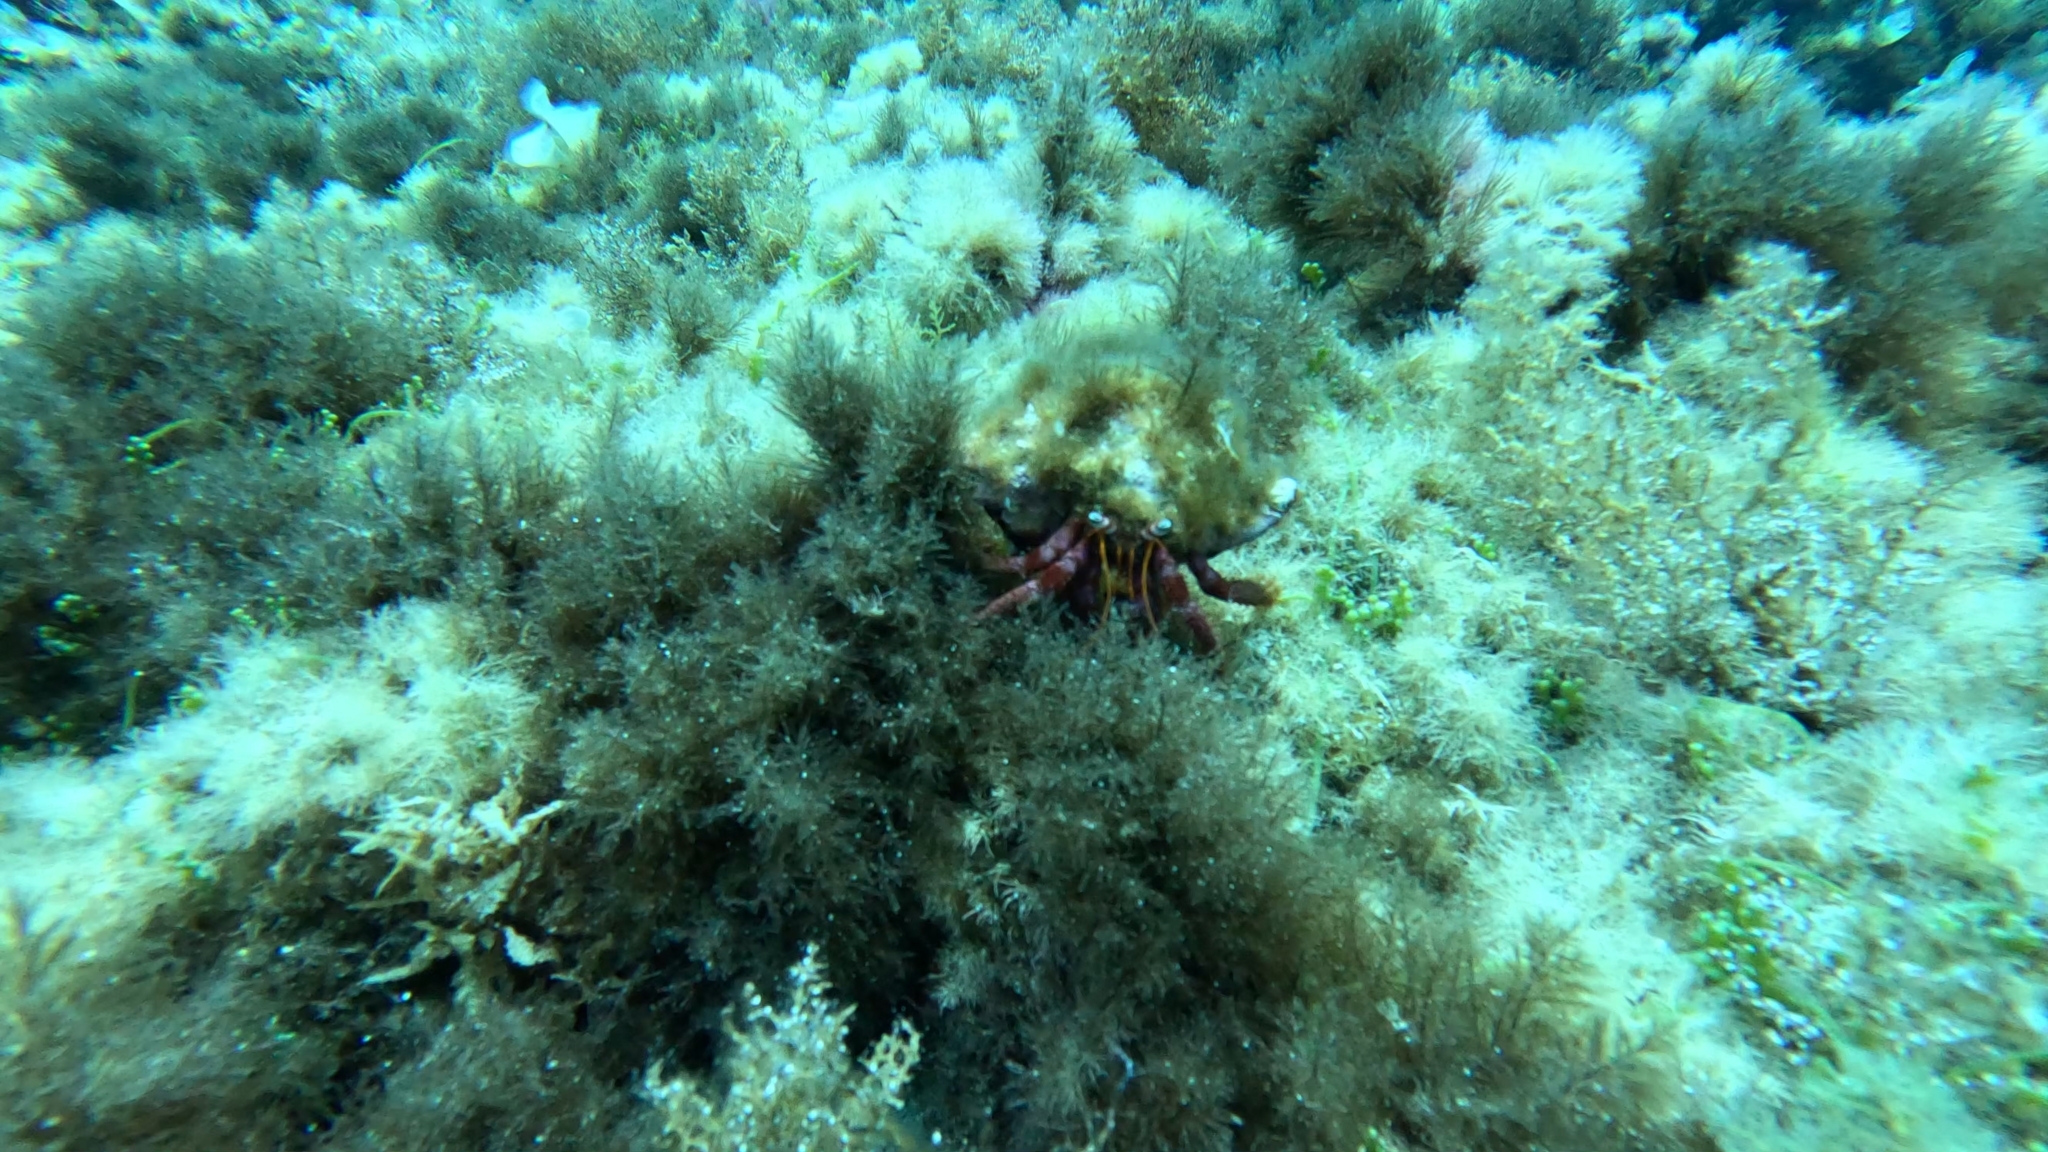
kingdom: Animalia
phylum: Arthropoda
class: Malacostraca
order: Decapoda
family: Diogenidae
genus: Dardanus
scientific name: Dardanus calidus
